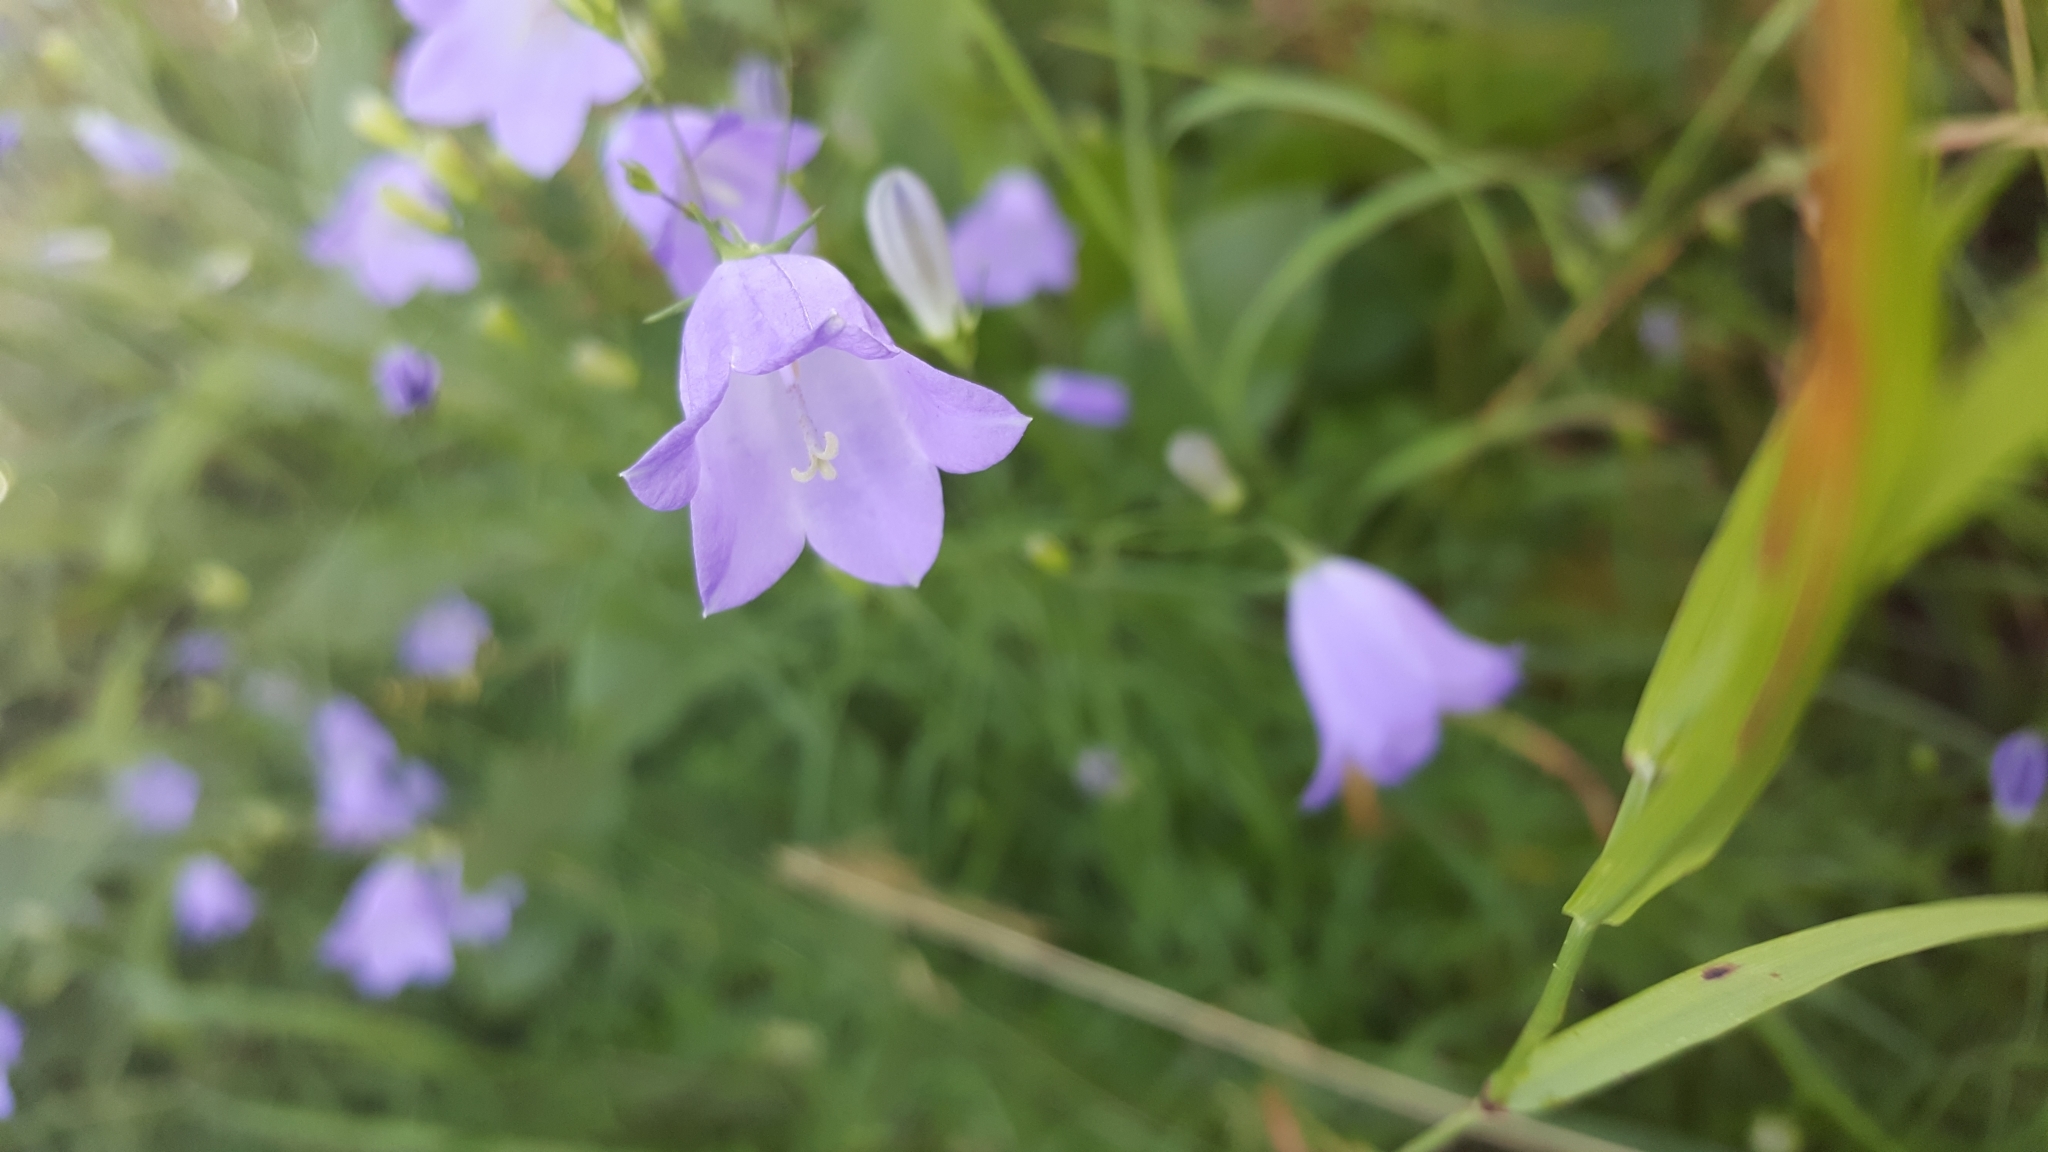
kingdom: Plantae
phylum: Tracheophyta
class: Magnoliopsida
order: Asterales
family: Campanulaceae
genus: Campanula
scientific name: Campanula rotundifolia
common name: Harebell
